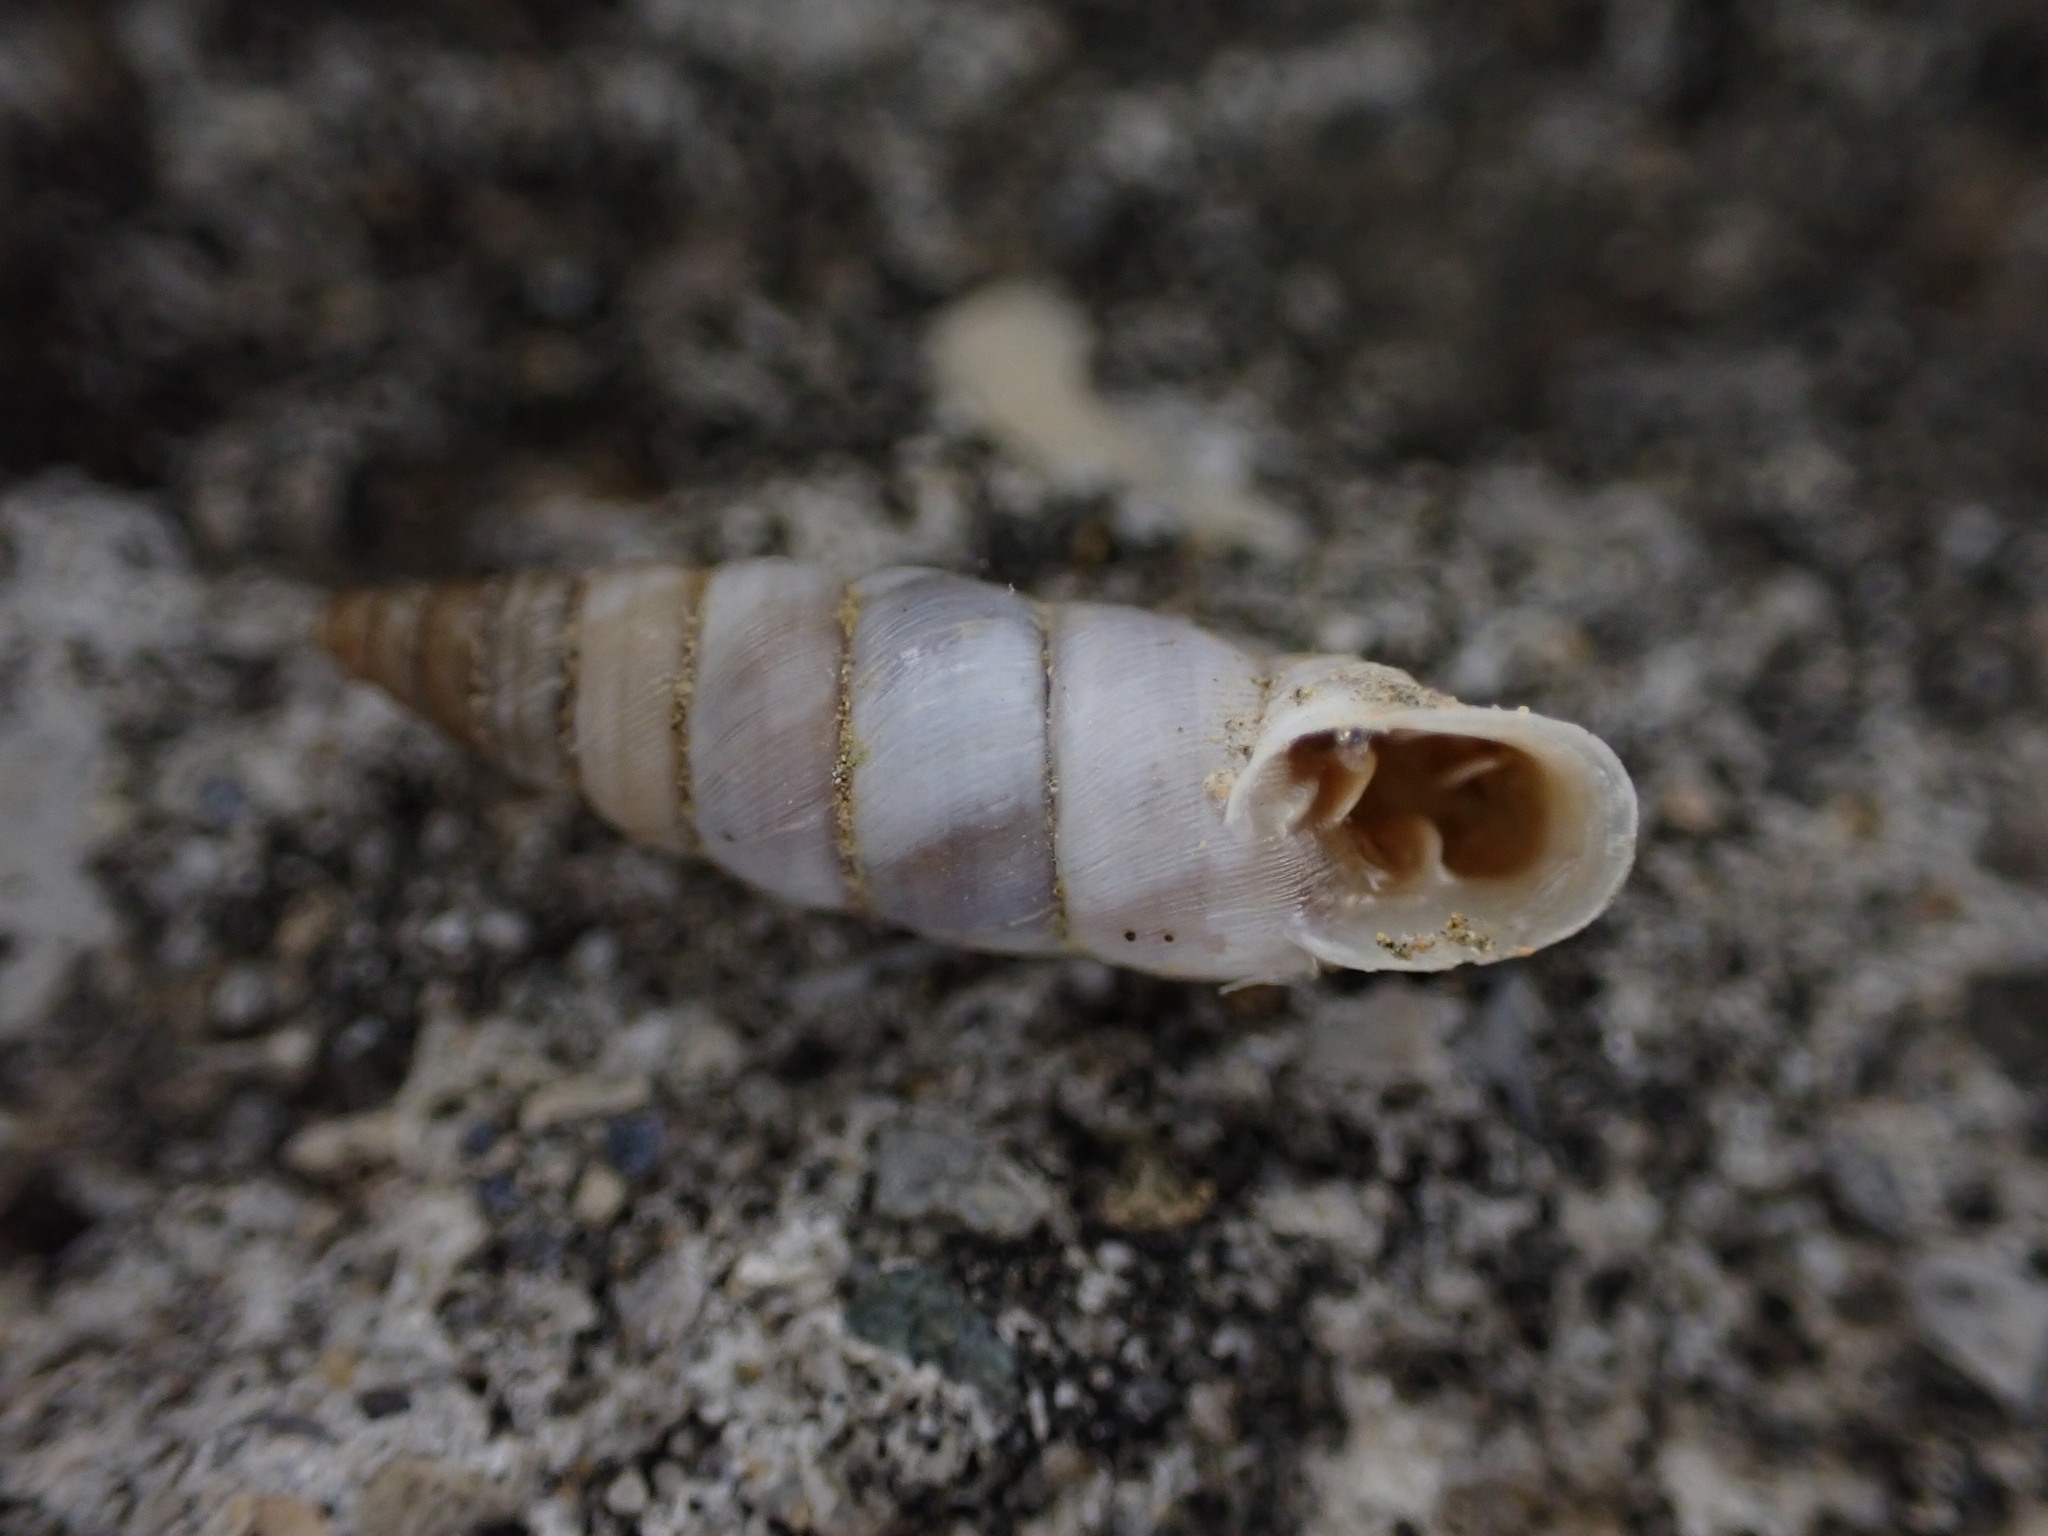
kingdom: Animalia
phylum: Mollusca
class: Gastropoda
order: Stylommatophora
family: Chondrinidae
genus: Solatopupa
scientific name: Solatopupa similis
